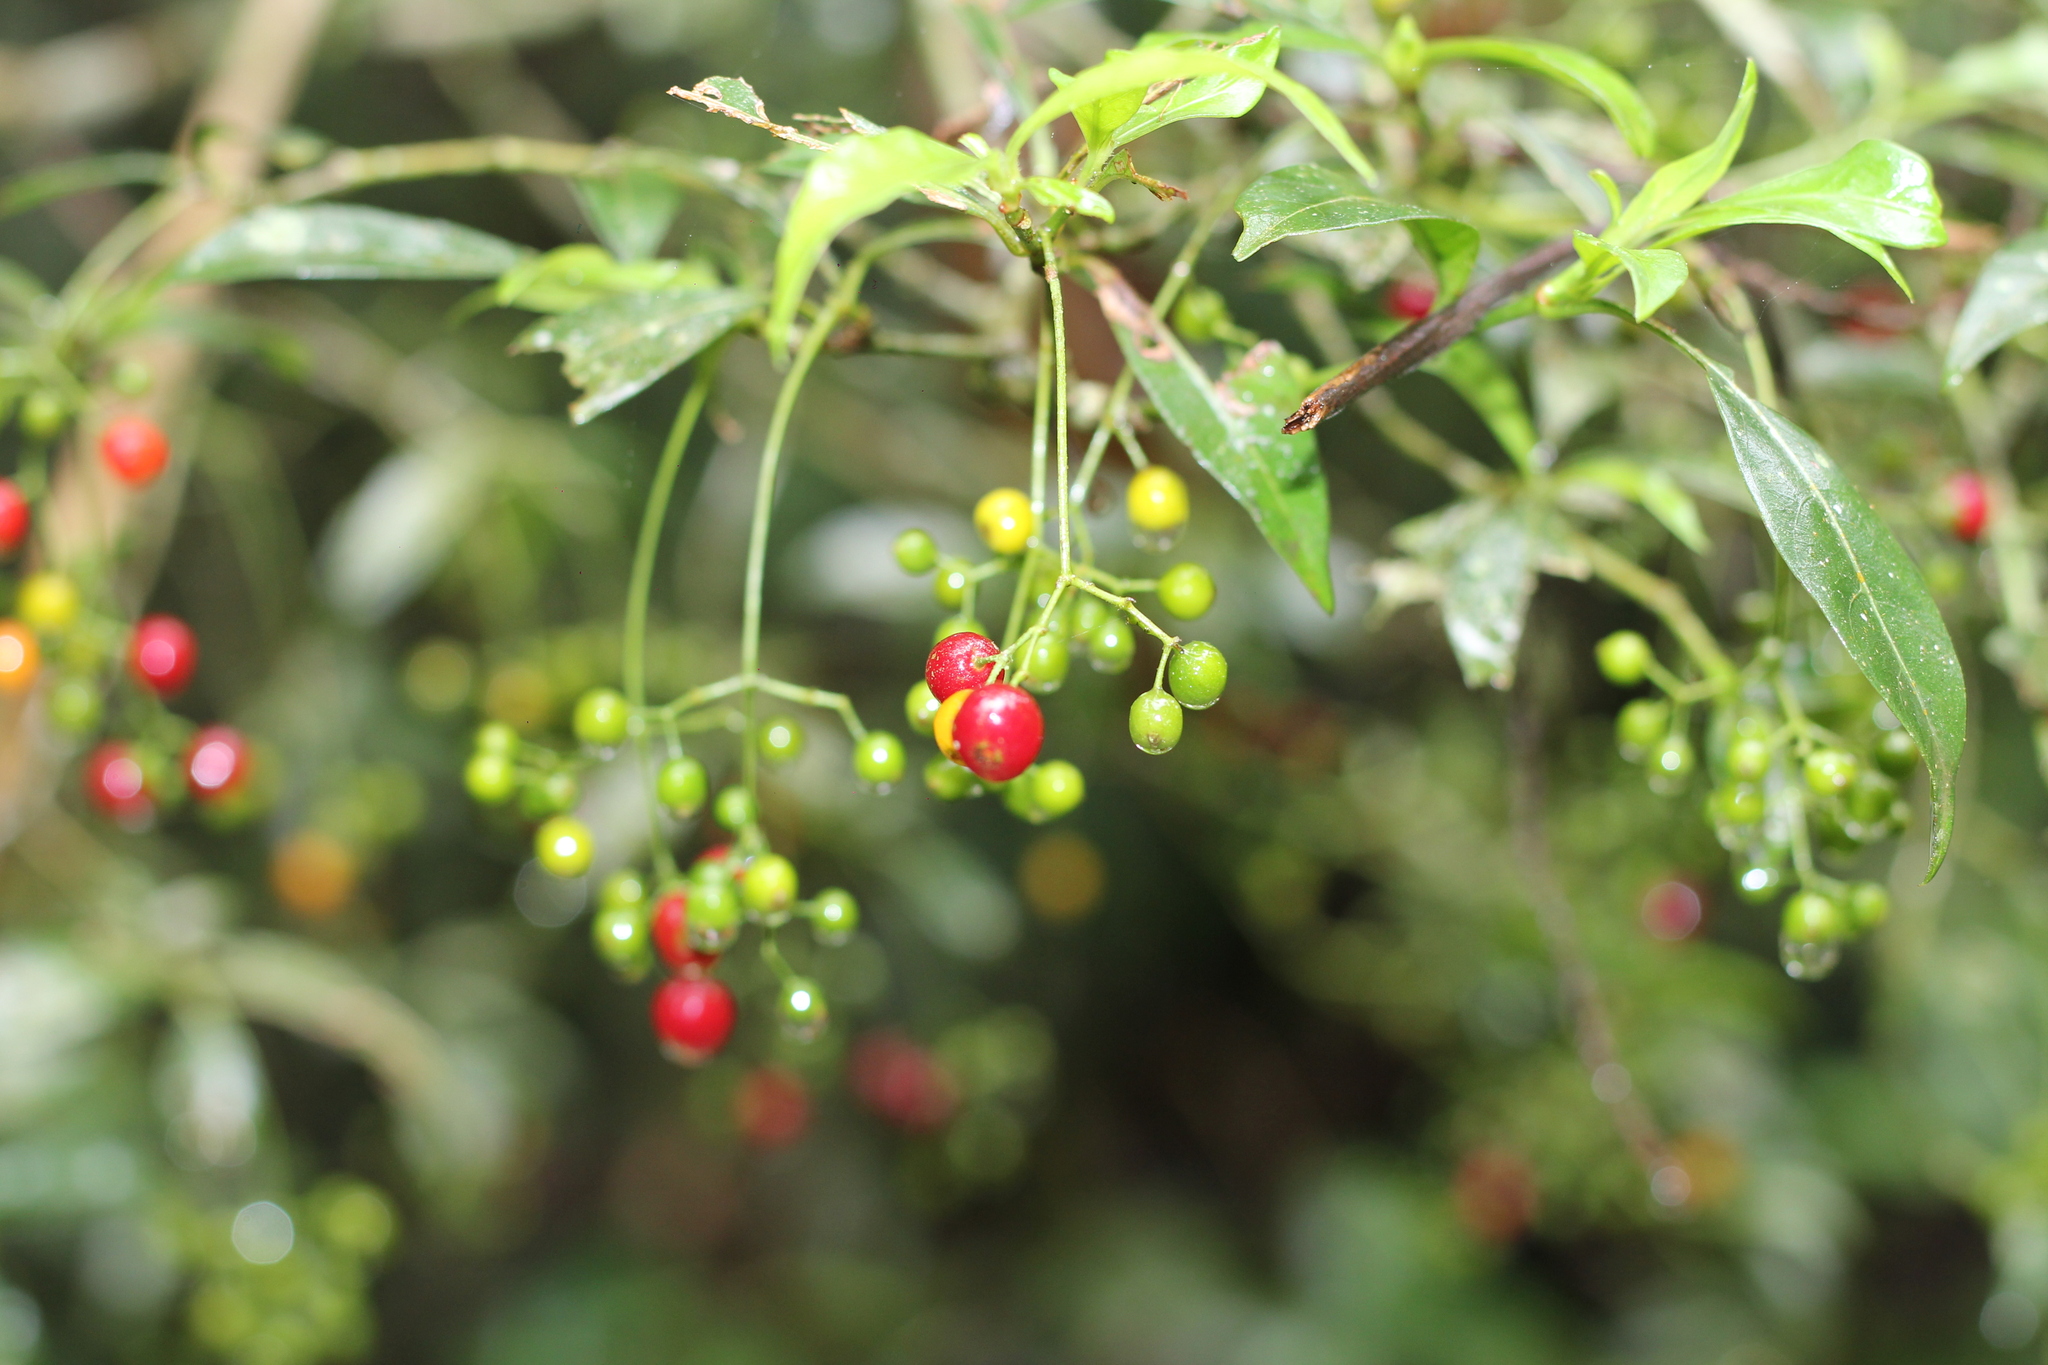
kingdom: Plantae
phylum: Tracheophyta
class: Magnoliopsida
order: Sapindales
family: Sapindaceae
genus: Allophylus
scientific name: Allophylus edulis
